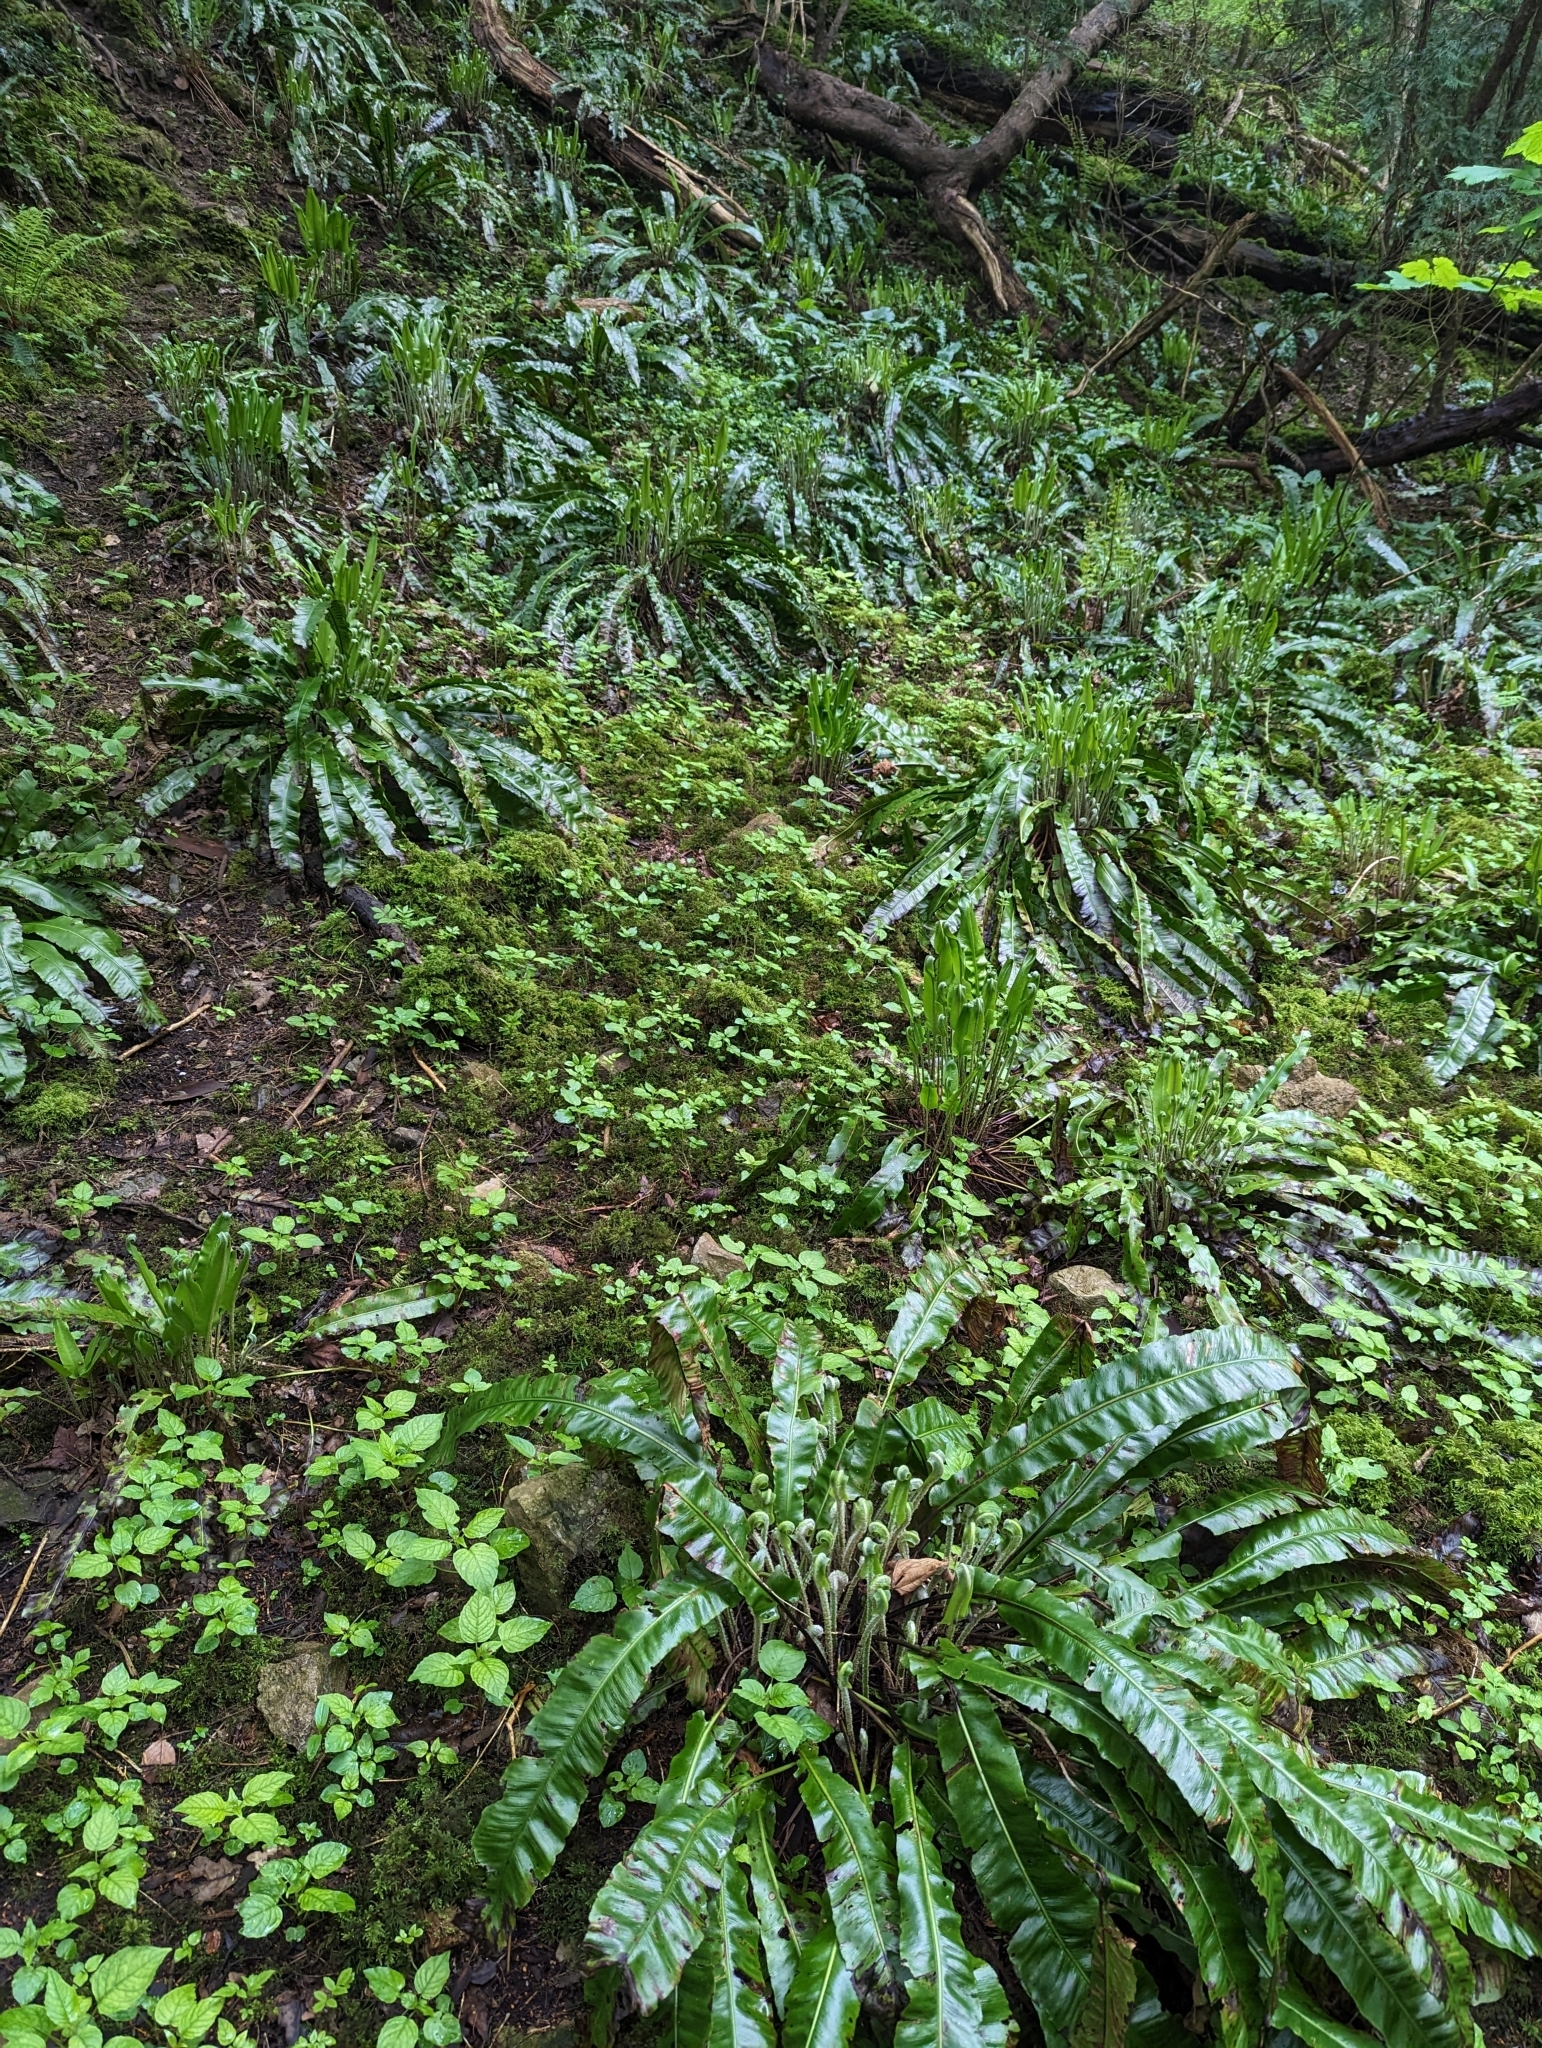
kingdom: Plantae
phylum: Tracheophyta
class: Polypodiopsida
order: Polypodiales
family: Aspleniaceae
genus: Asplenium
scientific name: Asplenium scolopendrium
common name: Hart's-tongue fern
